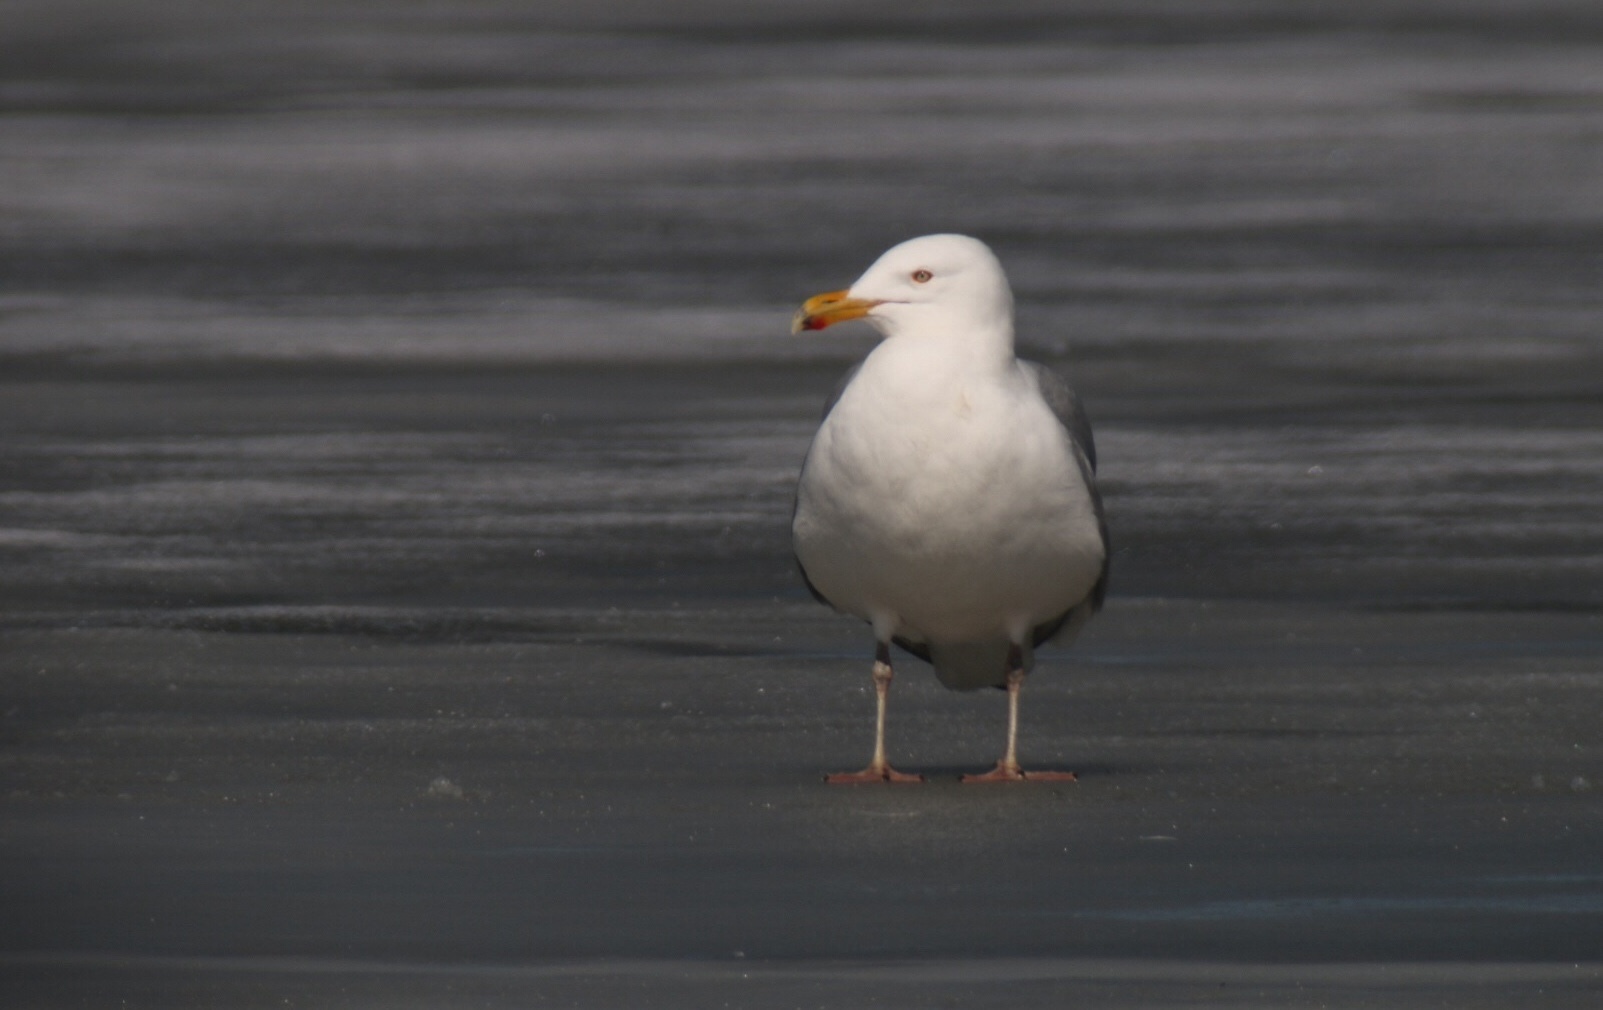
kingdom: Animalia
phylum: Chordata
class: Aves
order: Charadriiformes
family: Laridae
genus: Larus
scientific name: Larus argentatus
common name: Herring gull
